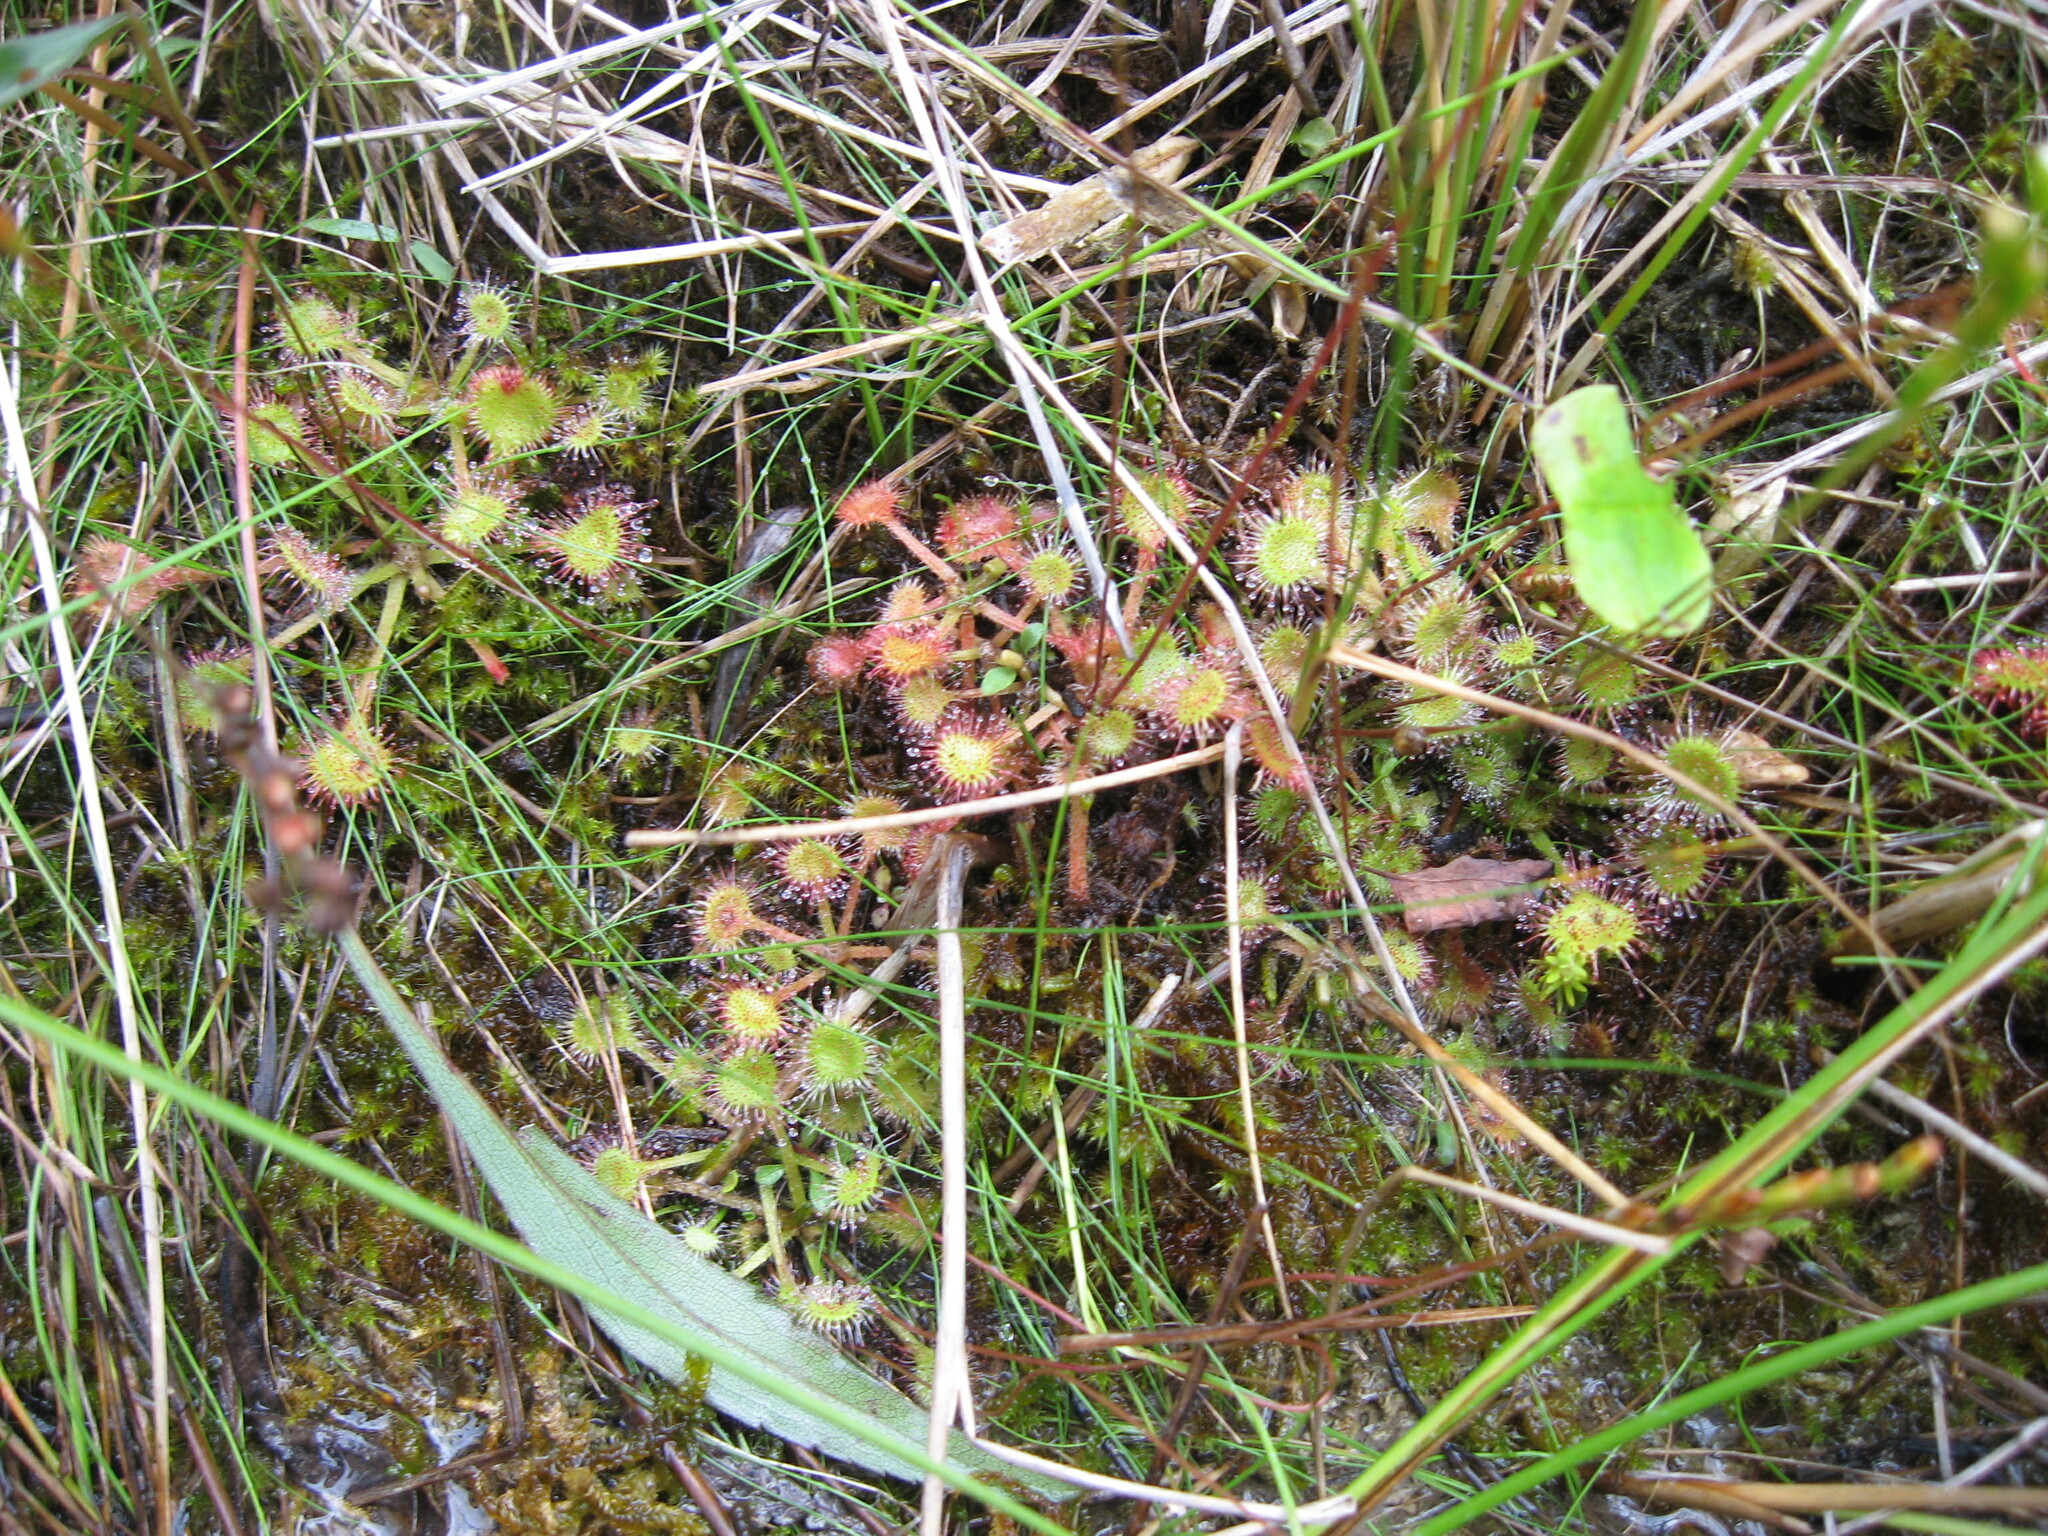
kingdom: Plantae
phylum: Tracheophyta
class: Magnoliopsida
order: Caryophyllales
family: Droseraceae
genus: Drosera
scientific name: Drosera rotundifolia
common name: Round-leaved sundew
